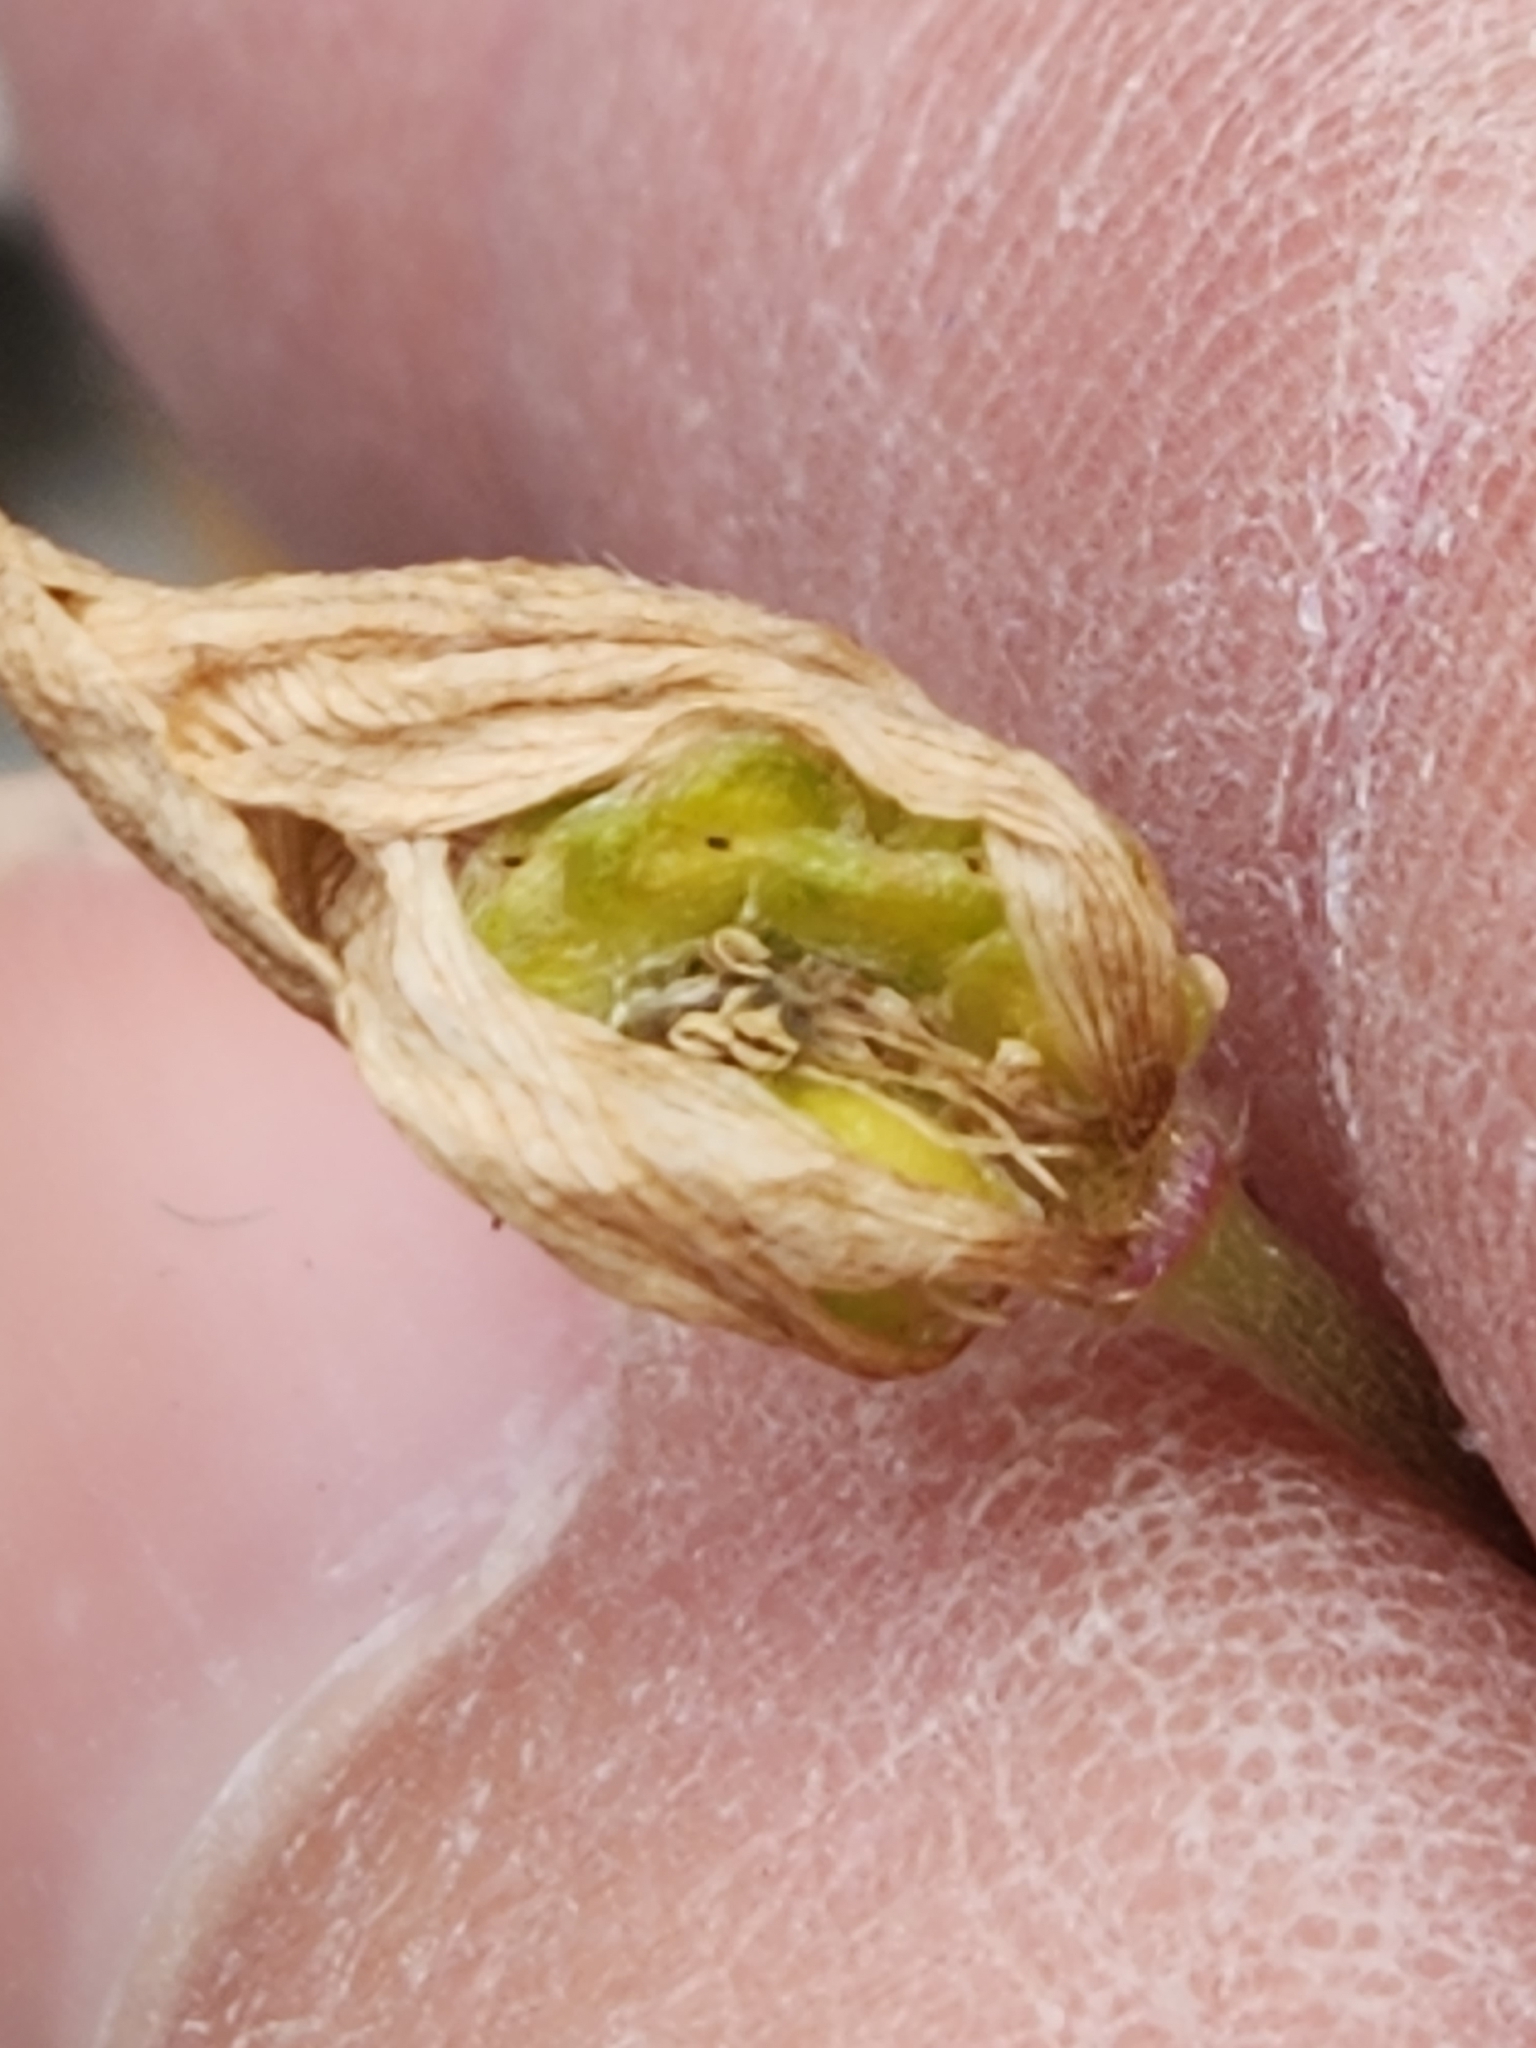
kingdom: Plantae
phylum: Tracheophyta
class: Magnoliopsida
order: Ranunculales
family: Ranunculaceae
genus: Anemone
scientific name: Anemone edwardsiana
